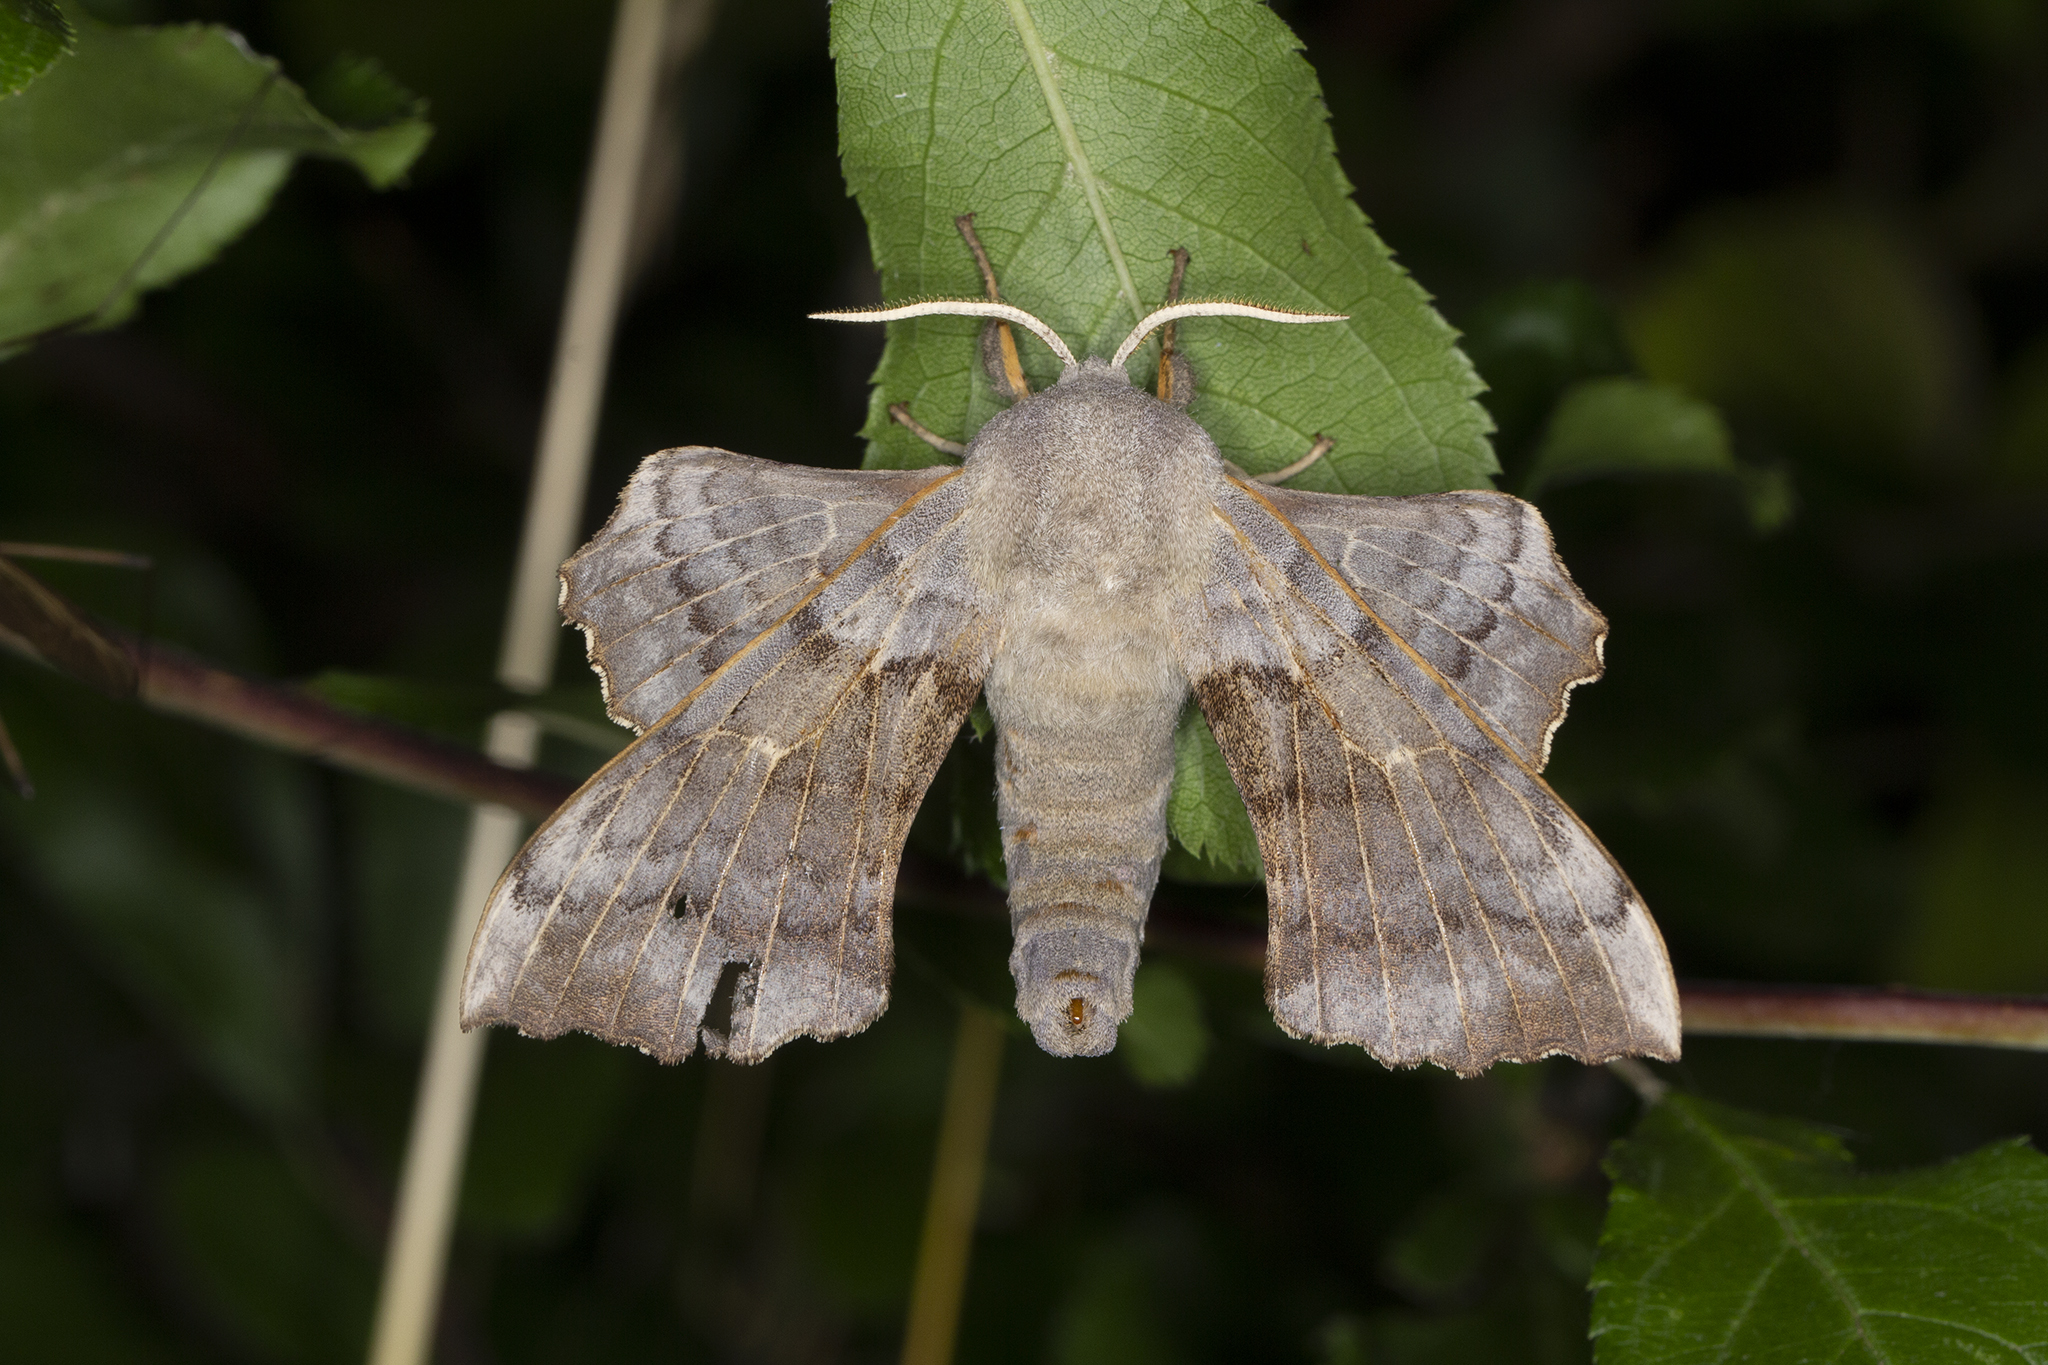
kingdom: Animalia
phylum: Arthropoda
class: Insecta
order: Lepidoptera
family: Sphingidae
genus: Laothoe
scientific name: Laothoe populi
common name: Poplar hawk-moth
